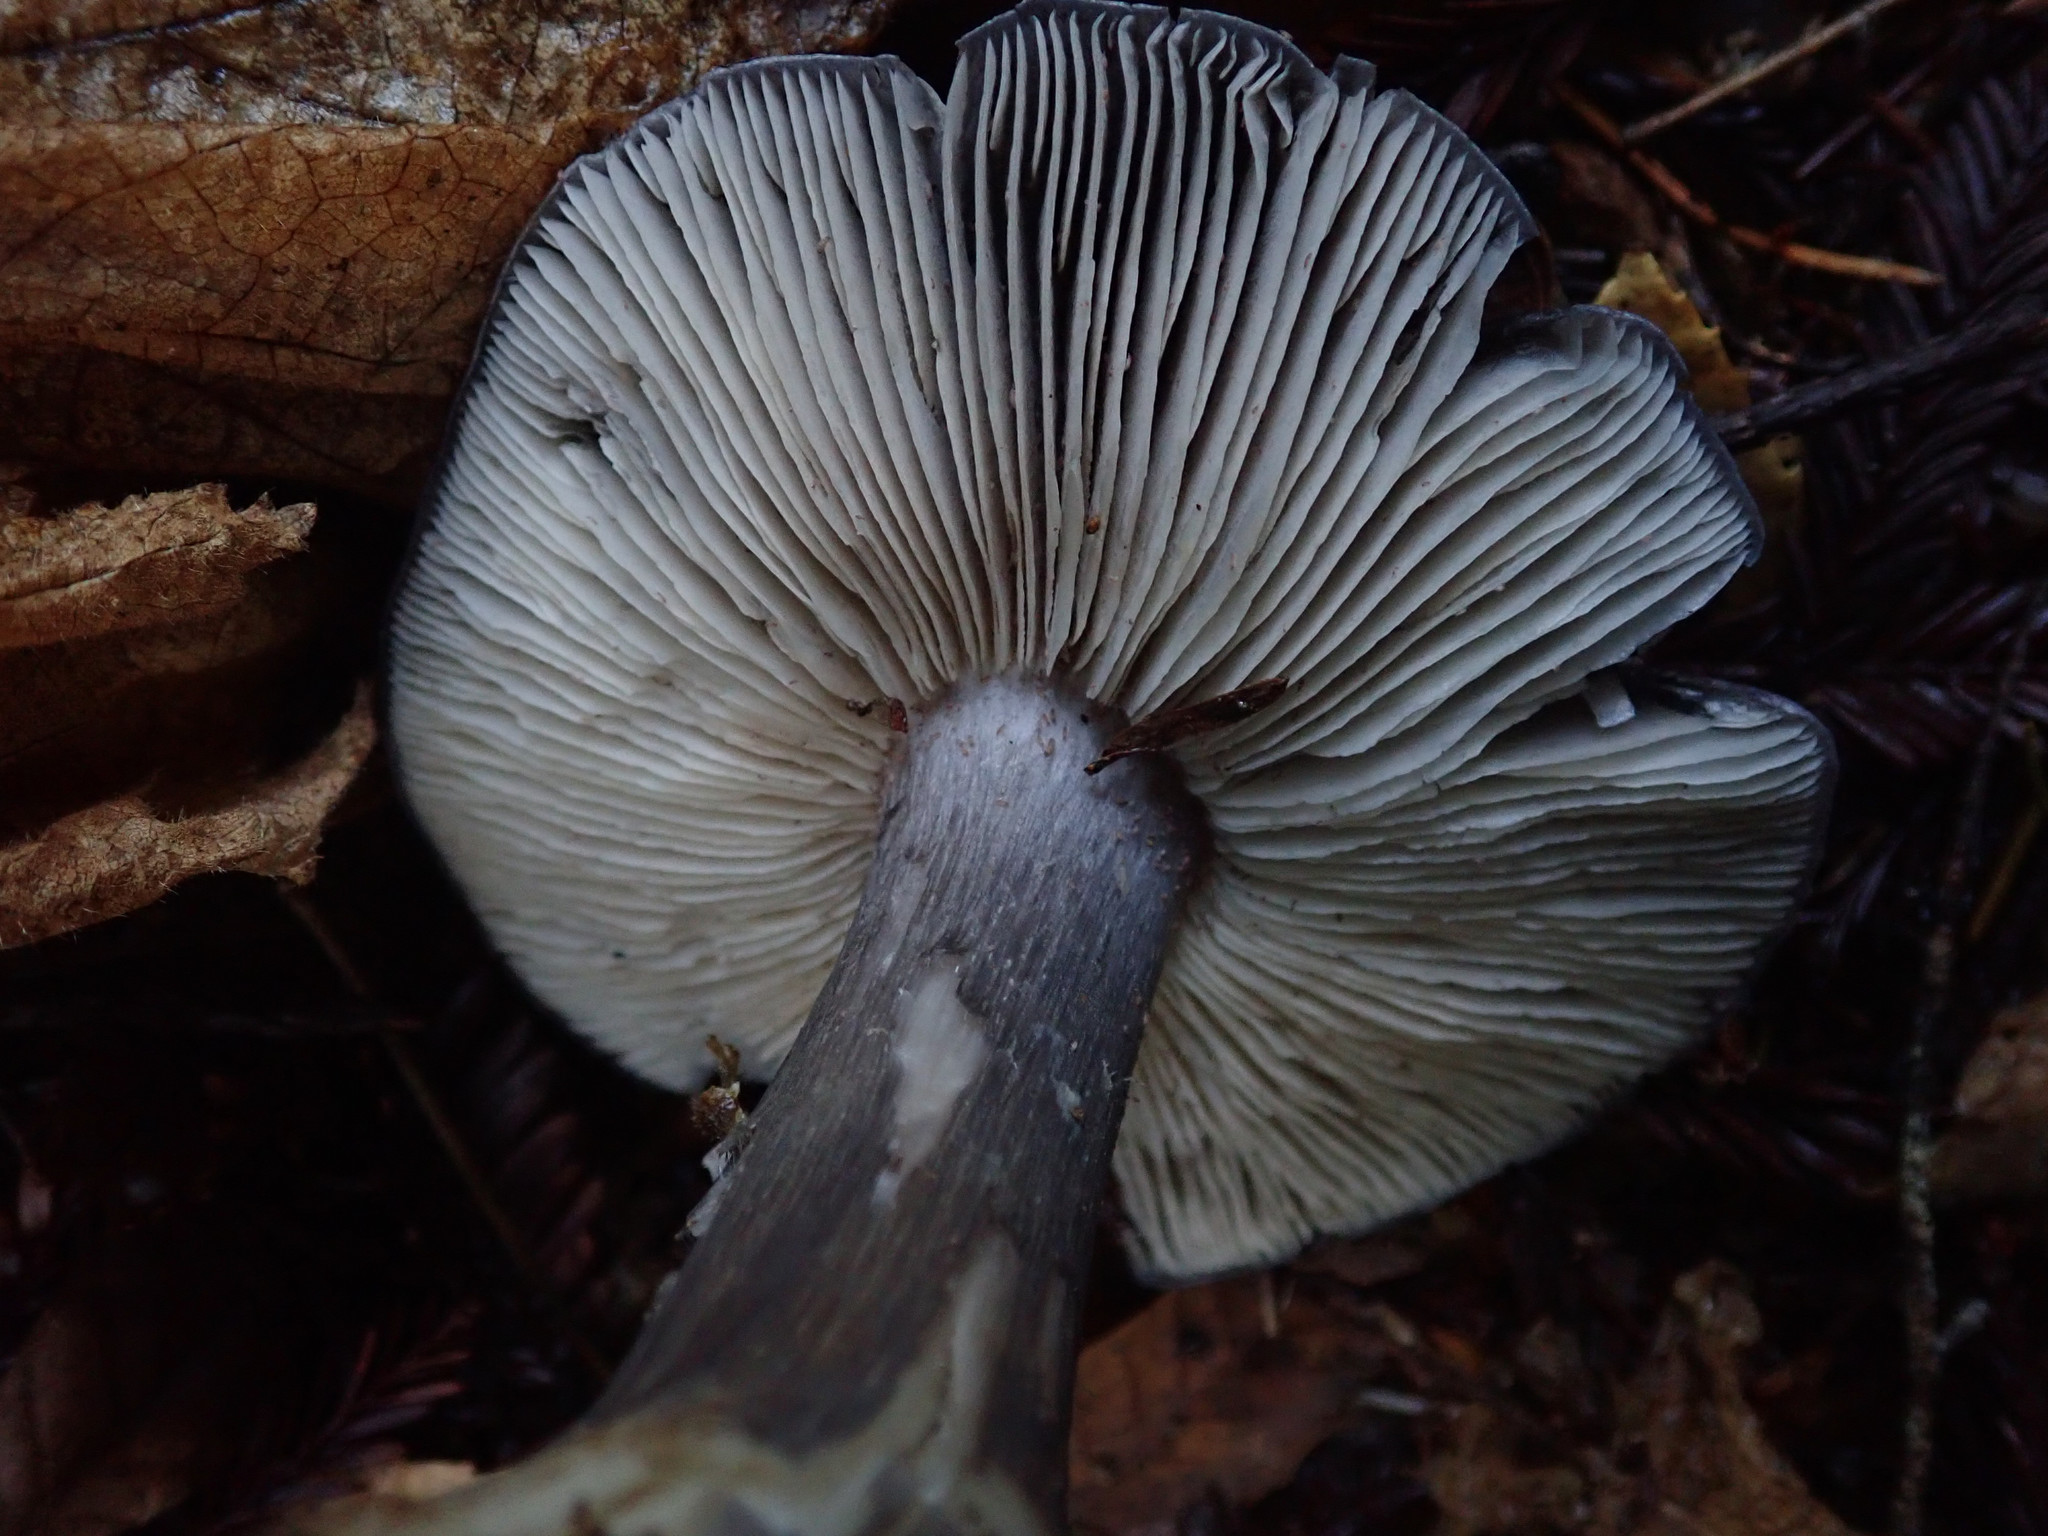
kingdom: Fungi
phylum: Basidiomycota
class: Agaricomycetes
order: Agaricales
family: Entolomataceae
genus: Entoloma
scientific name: Entoloma medianox
